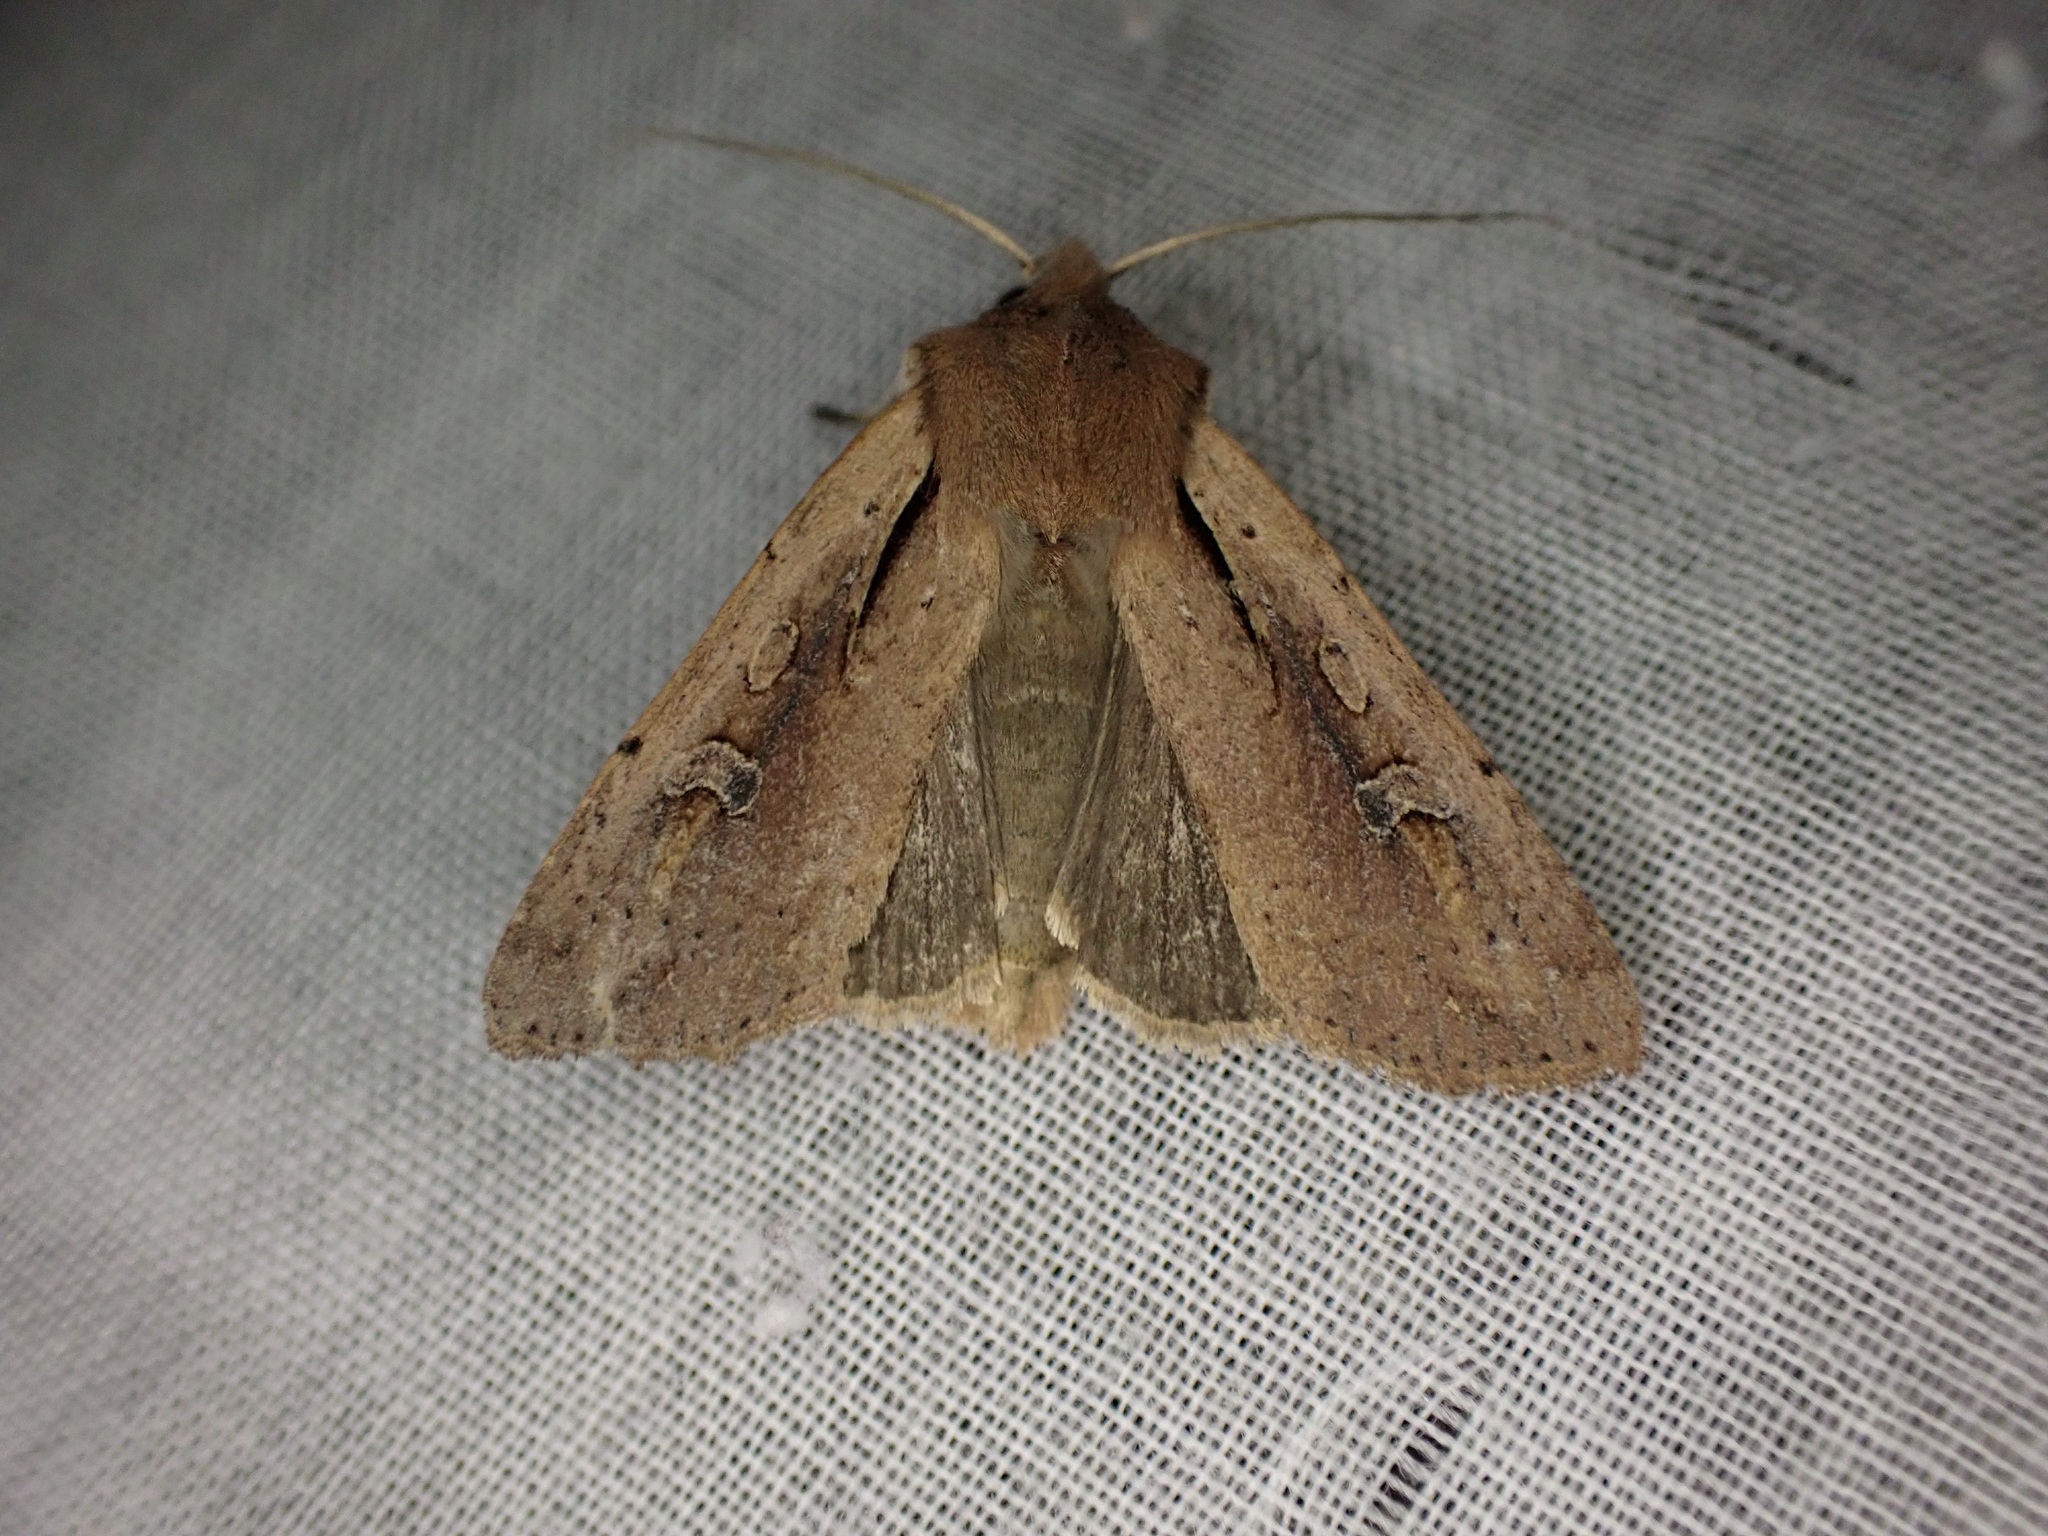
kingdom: Animalia
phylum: Arthropoda
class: Insecta
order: Lepidoptera
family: Noctuidae
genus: Ichneutica
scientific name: Ichneutica atristriga
